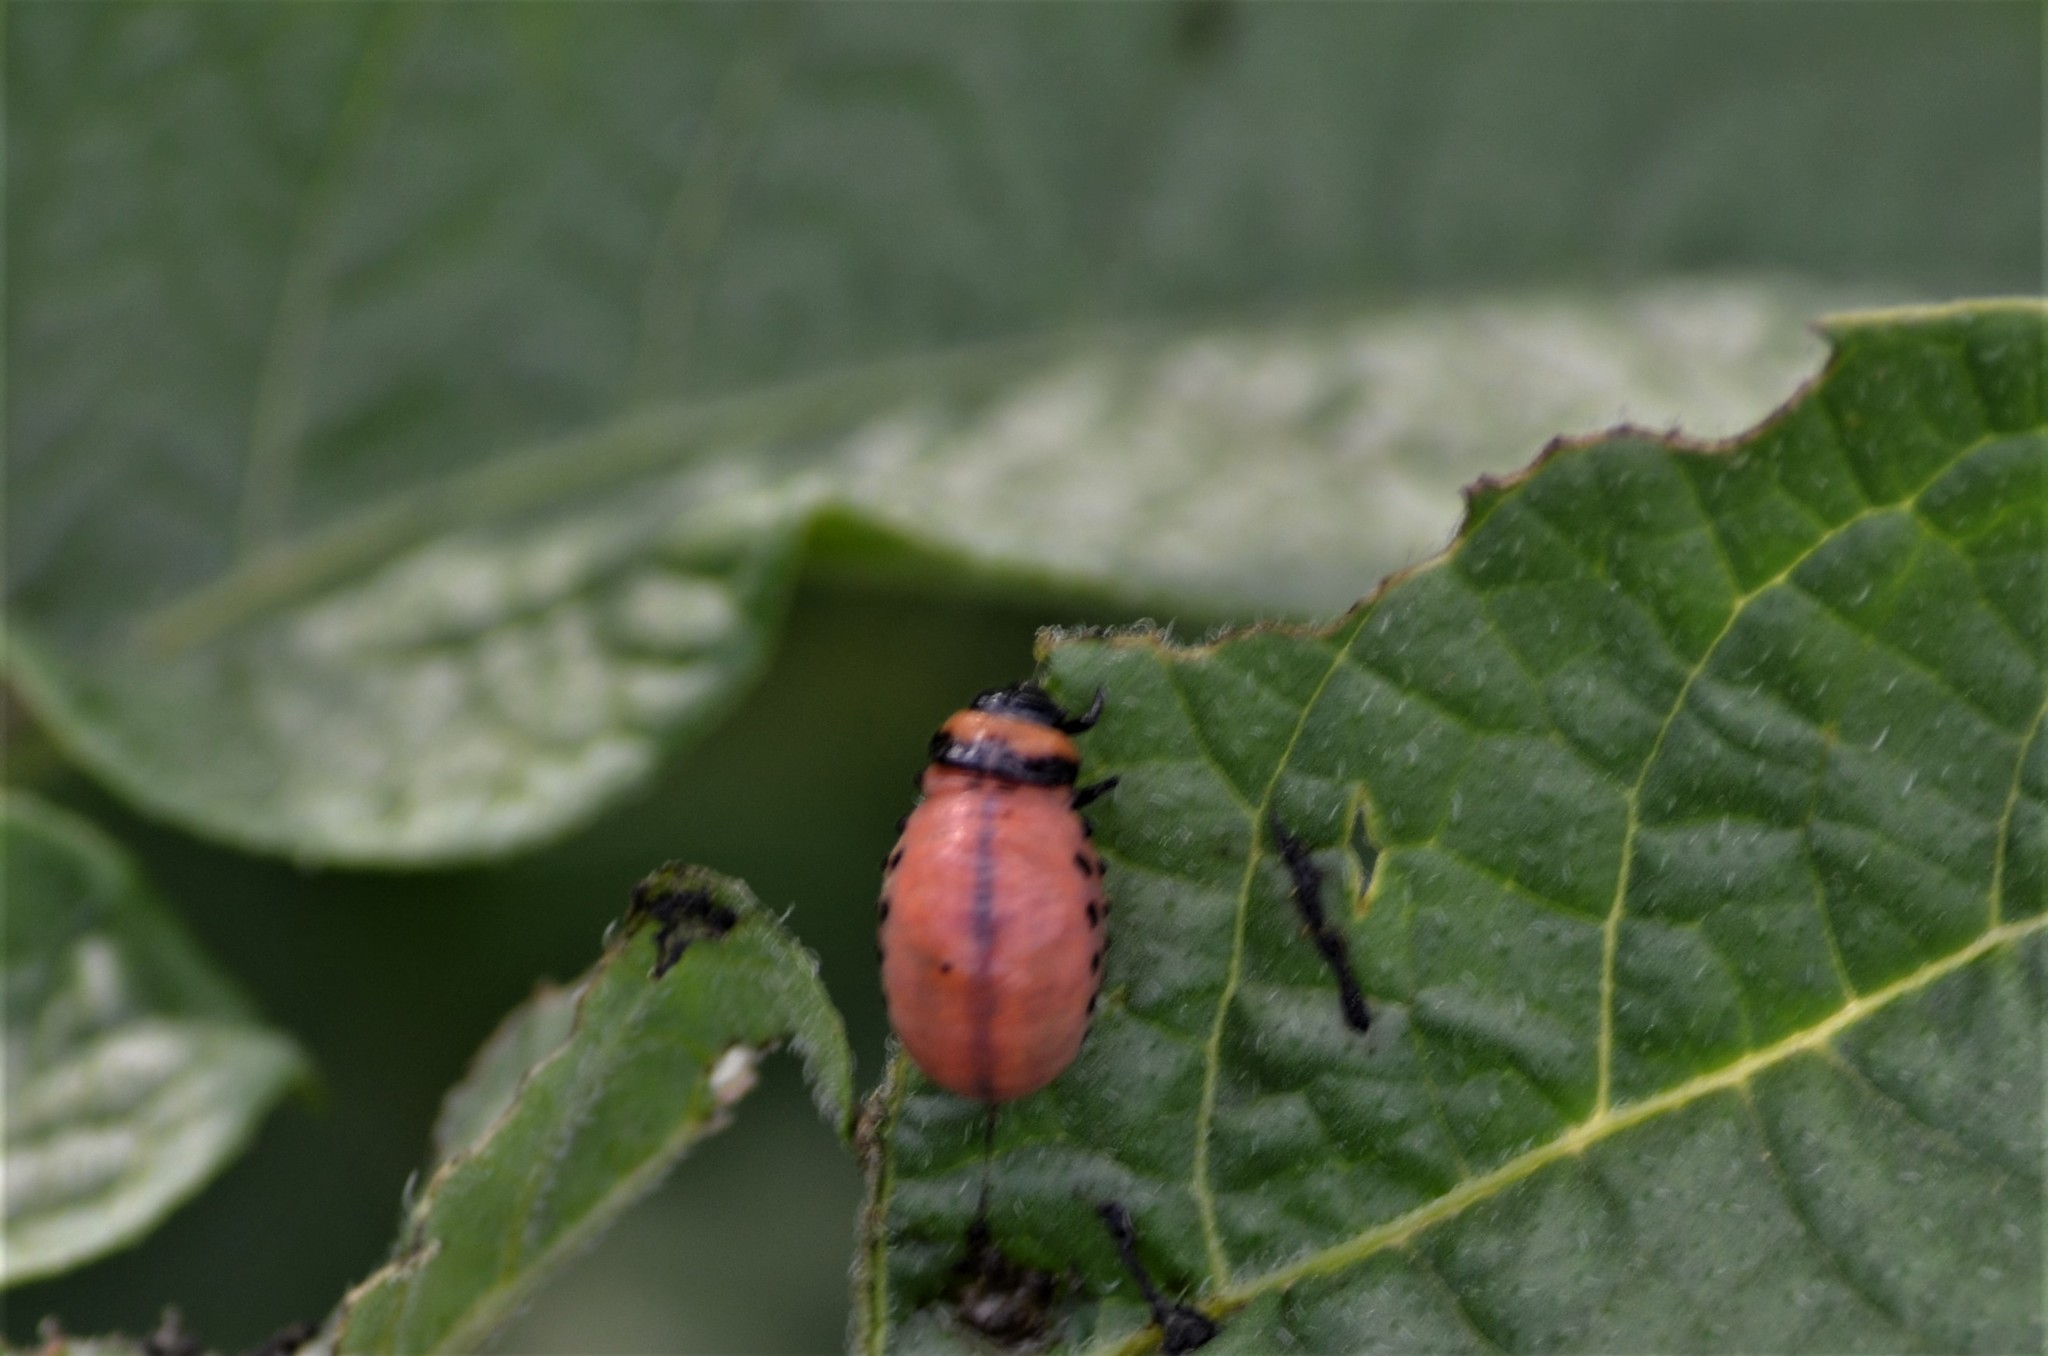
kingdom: Animalia
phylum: Arthropoda
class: Insecta
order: Coleoptera
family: Chrysomelidae
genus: Leptinotarsa
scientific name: Leptinotarsa decemlineata
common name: Colorado potato beetle
